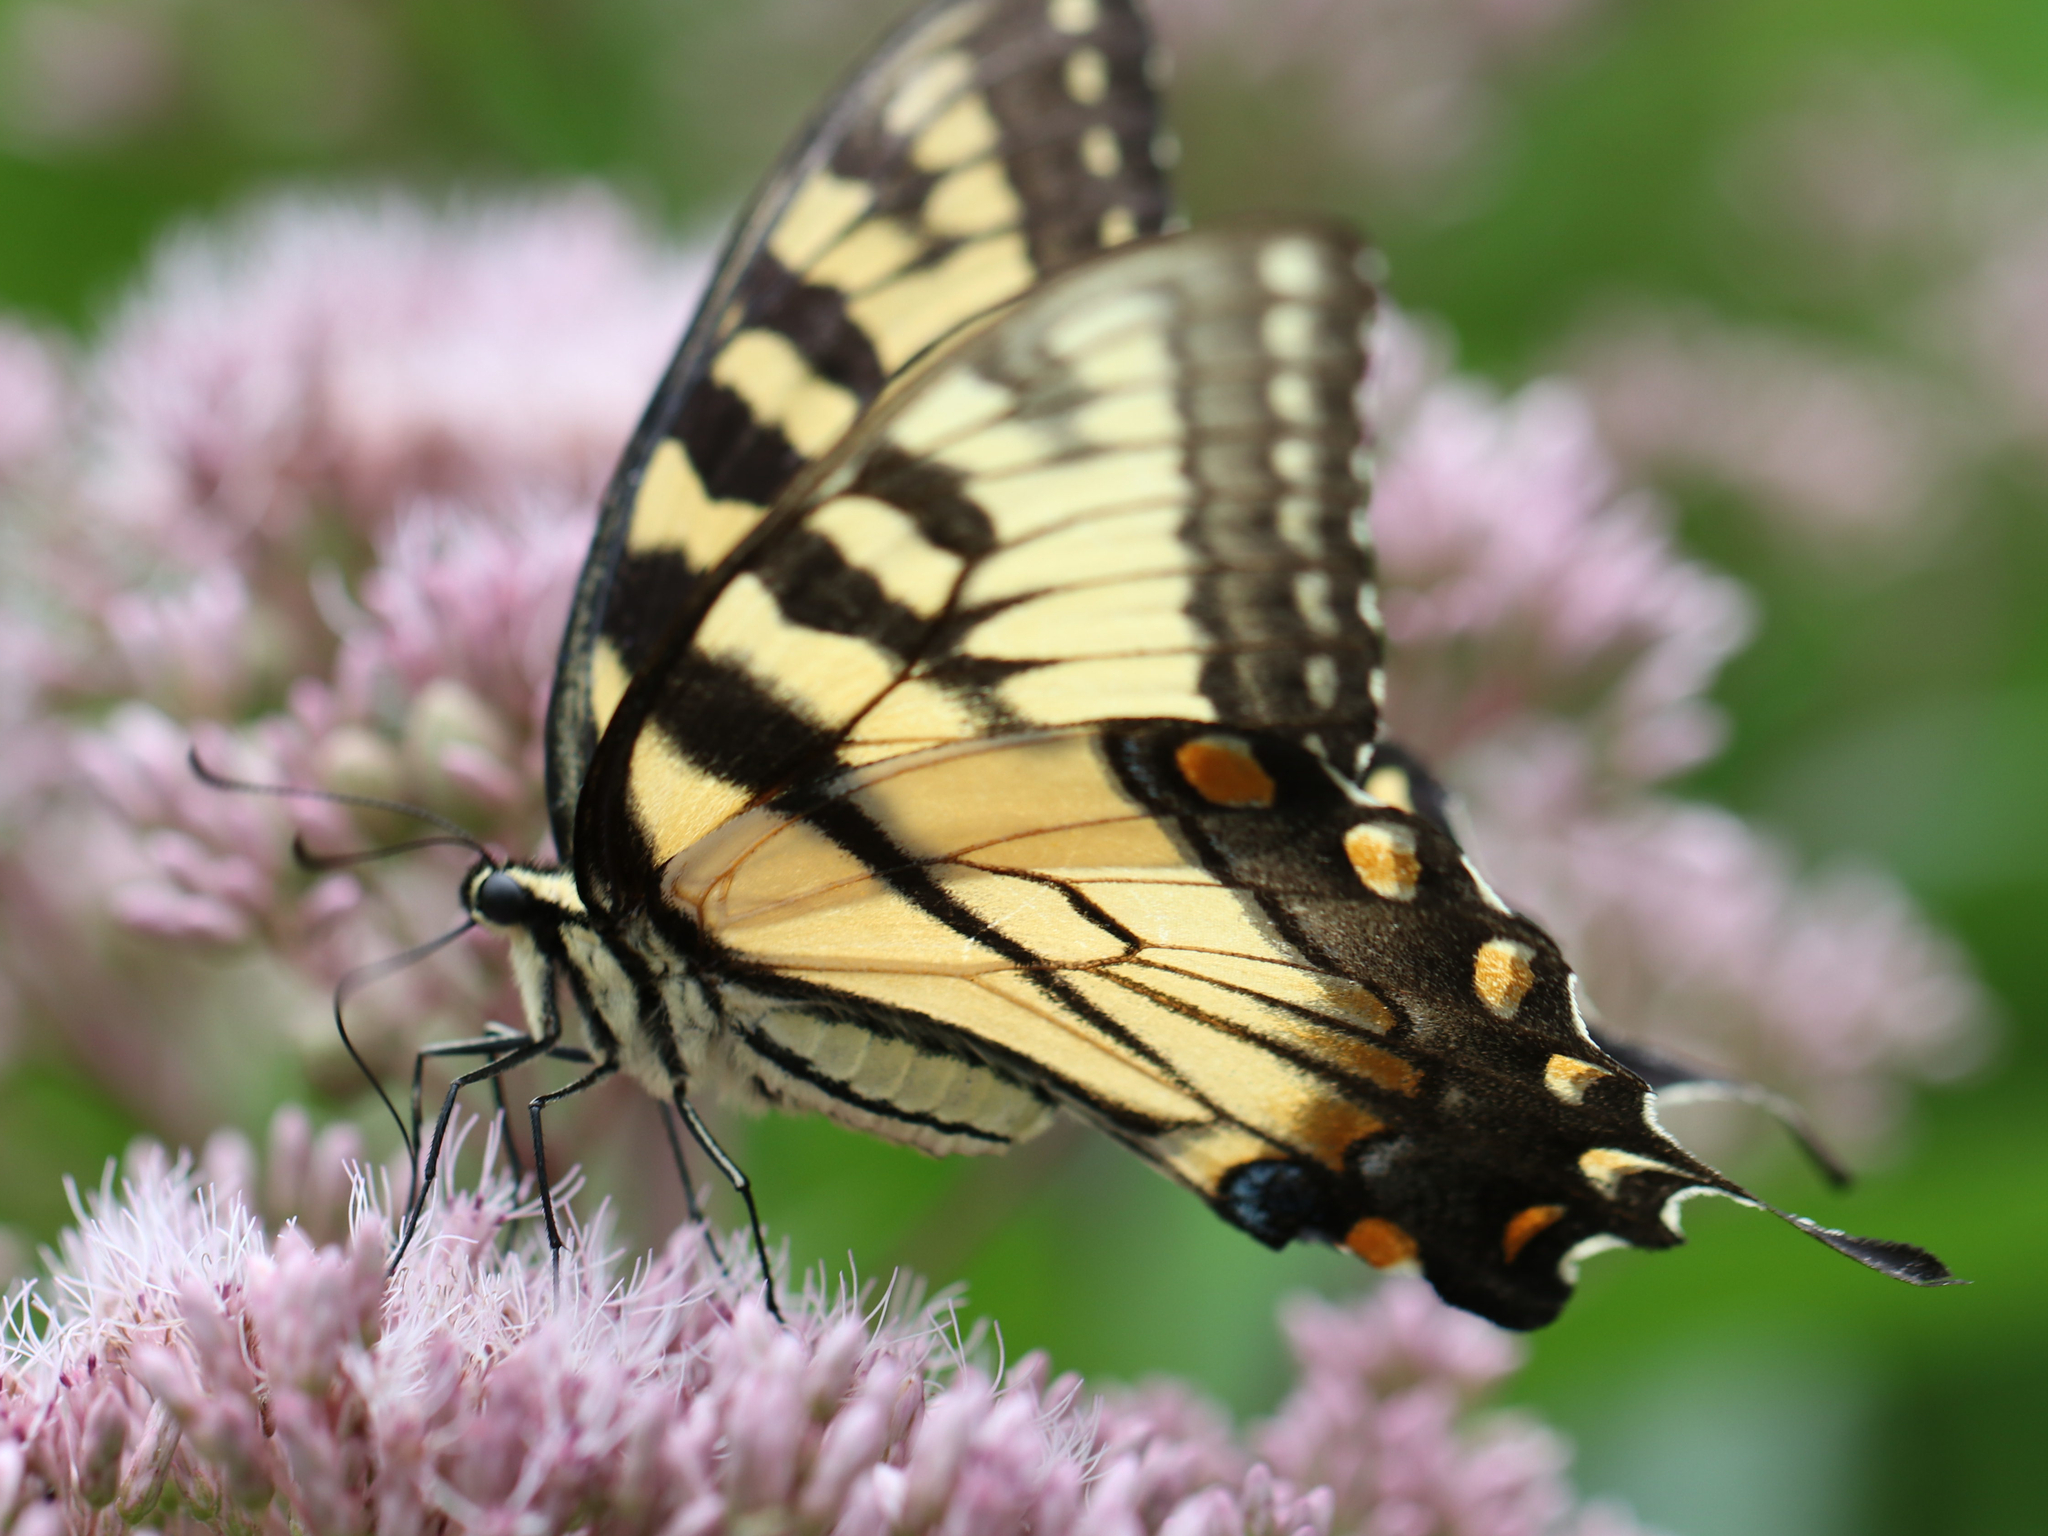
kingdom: Animalia
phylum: Arthropoda
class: Insecta
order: Lepidoptera
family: Papilionidae
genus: Papilio
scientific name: Papilio glaucus
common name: Tiger swallowtail
